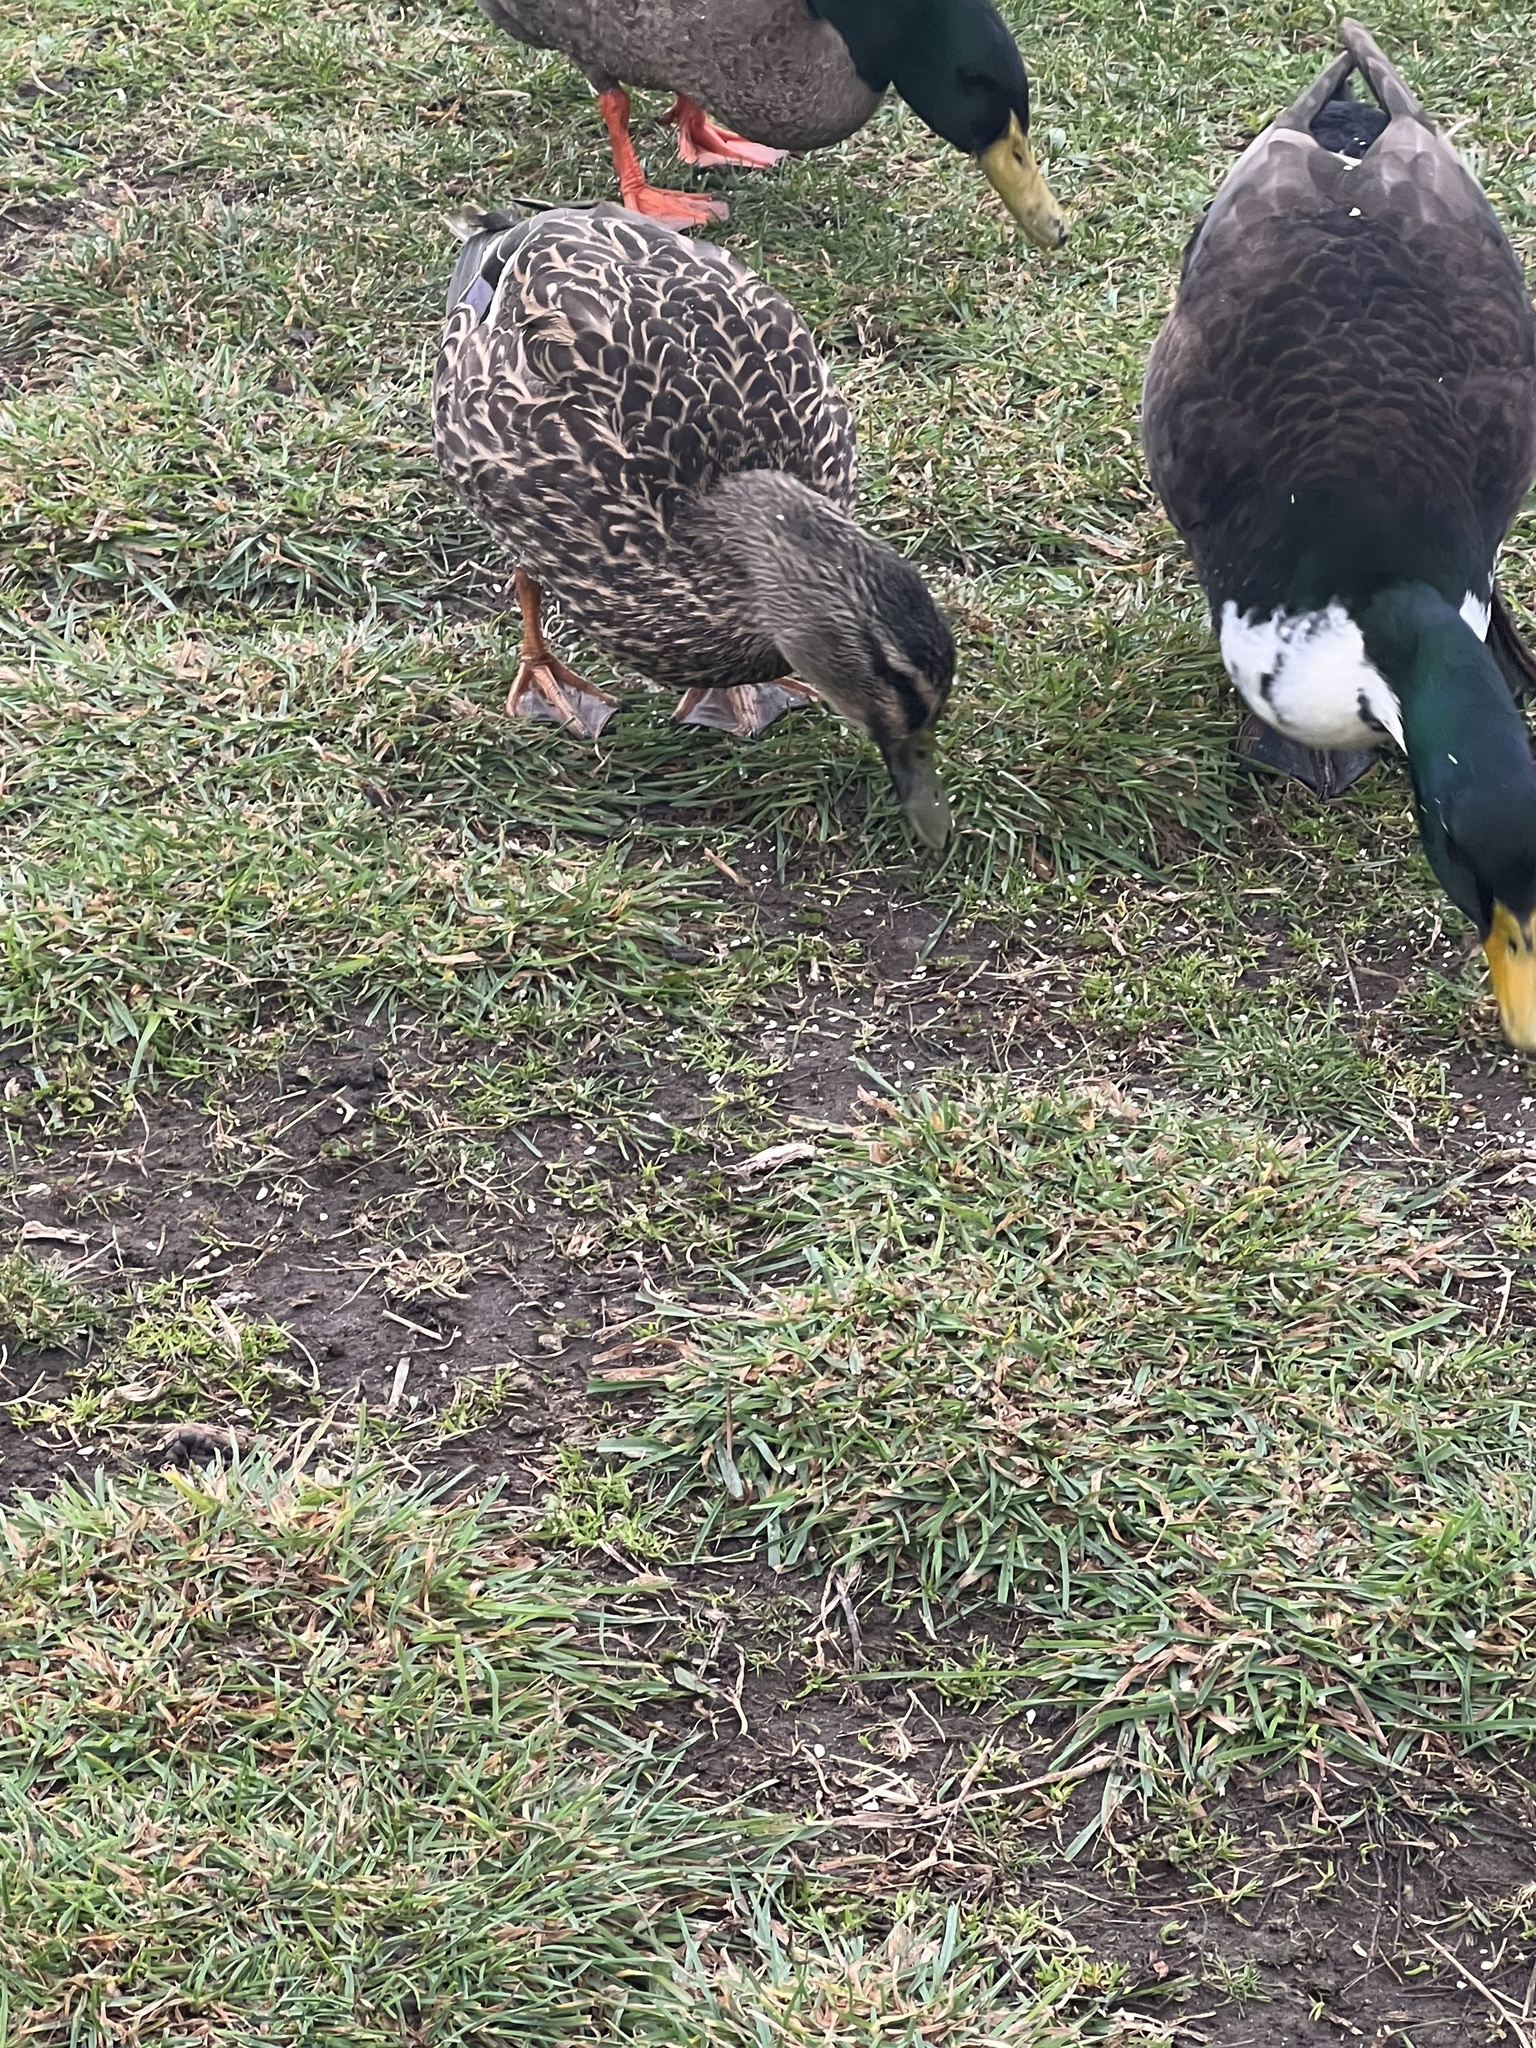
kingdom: Animalia
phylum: Chordata
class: Aves
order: Anseriformes
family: Anatidae
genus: Anas
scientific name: Anas
